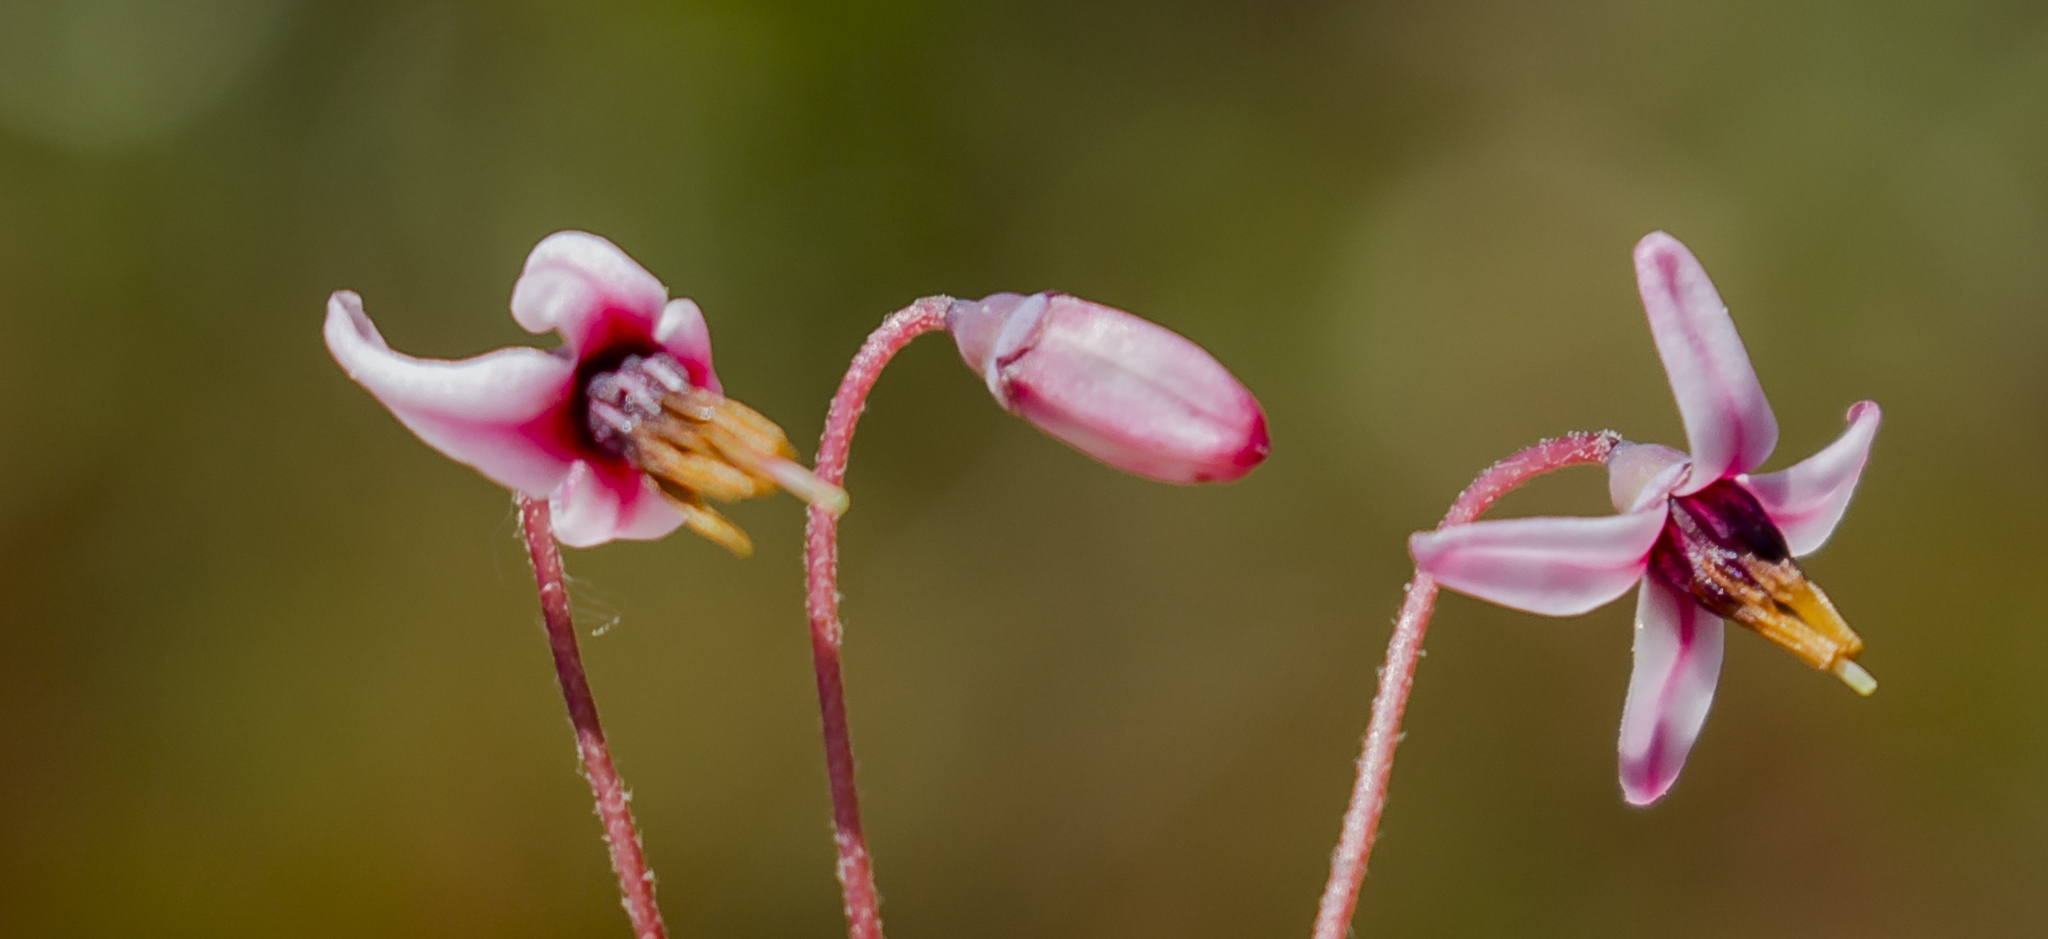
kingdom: Plantae
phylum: Tracheophyta
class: Magnoliopsida
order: Ericales
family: Ericaceae
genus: Vaccinium
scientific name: Vaccinium oxycoccos
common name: Cranberry
